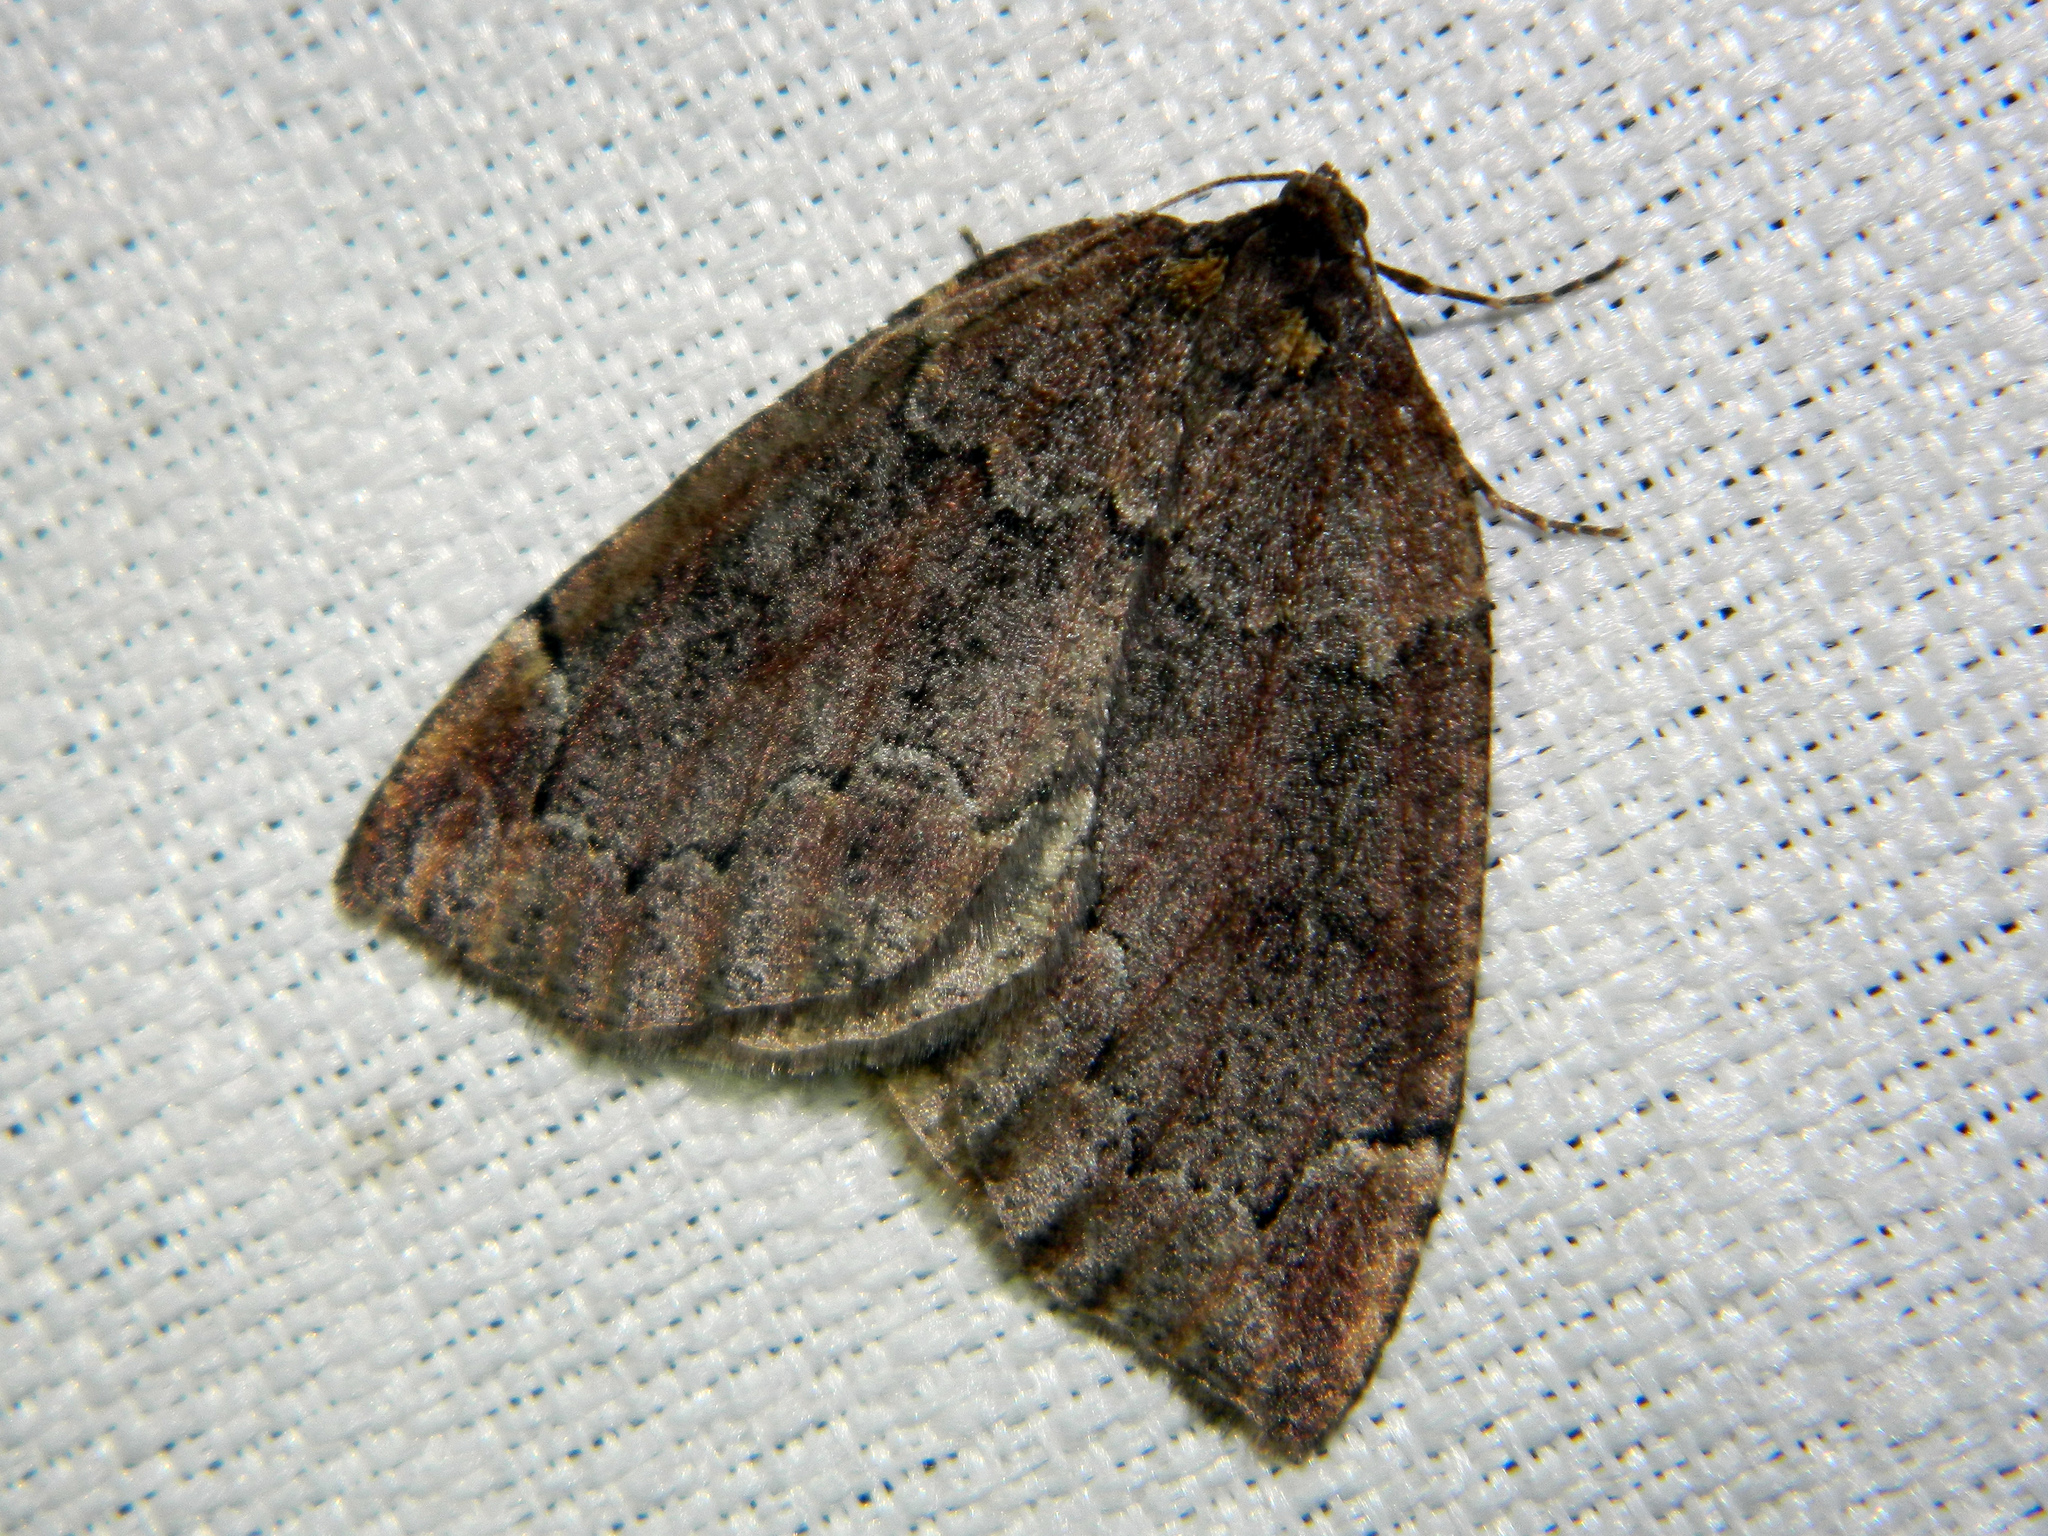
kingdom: Animalia
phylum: Arthropoda
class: Insecta
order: Lepidoptera
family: Geometridae
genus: Spodolepis
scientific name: Spodolepis substriataria
